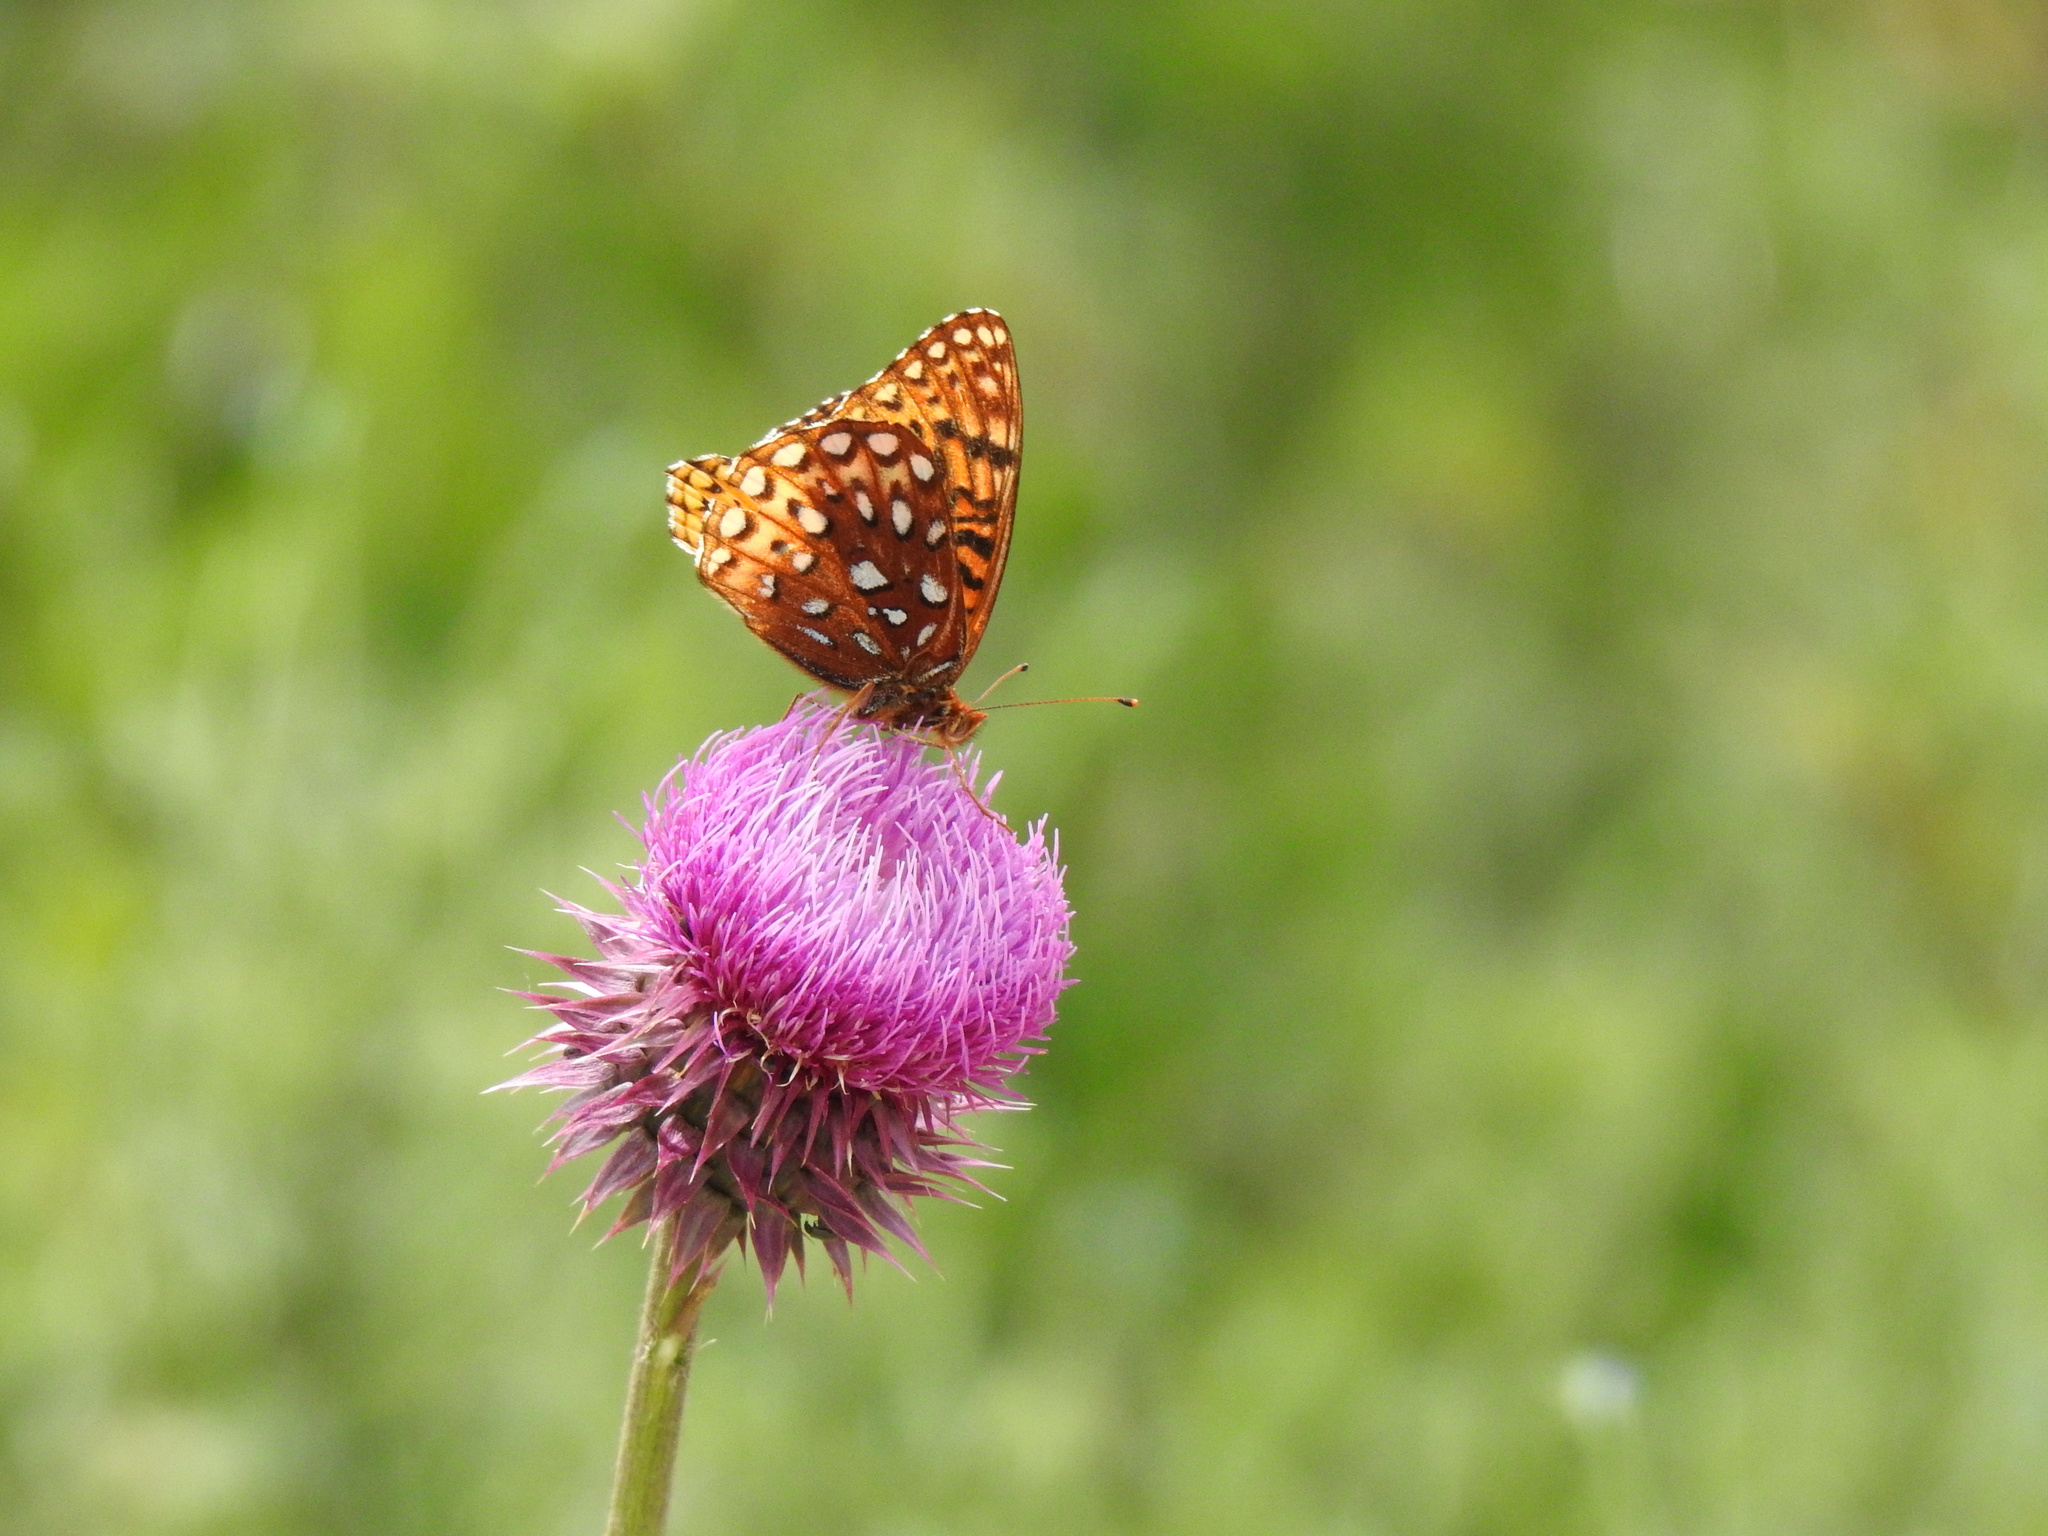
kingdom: Animalia
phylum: Arthropoda
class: Insecta
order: Lepidoptera
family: Nymphalidae
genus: Speyeria
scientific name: Speyeria atlantis
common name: Atlantis fritillary
